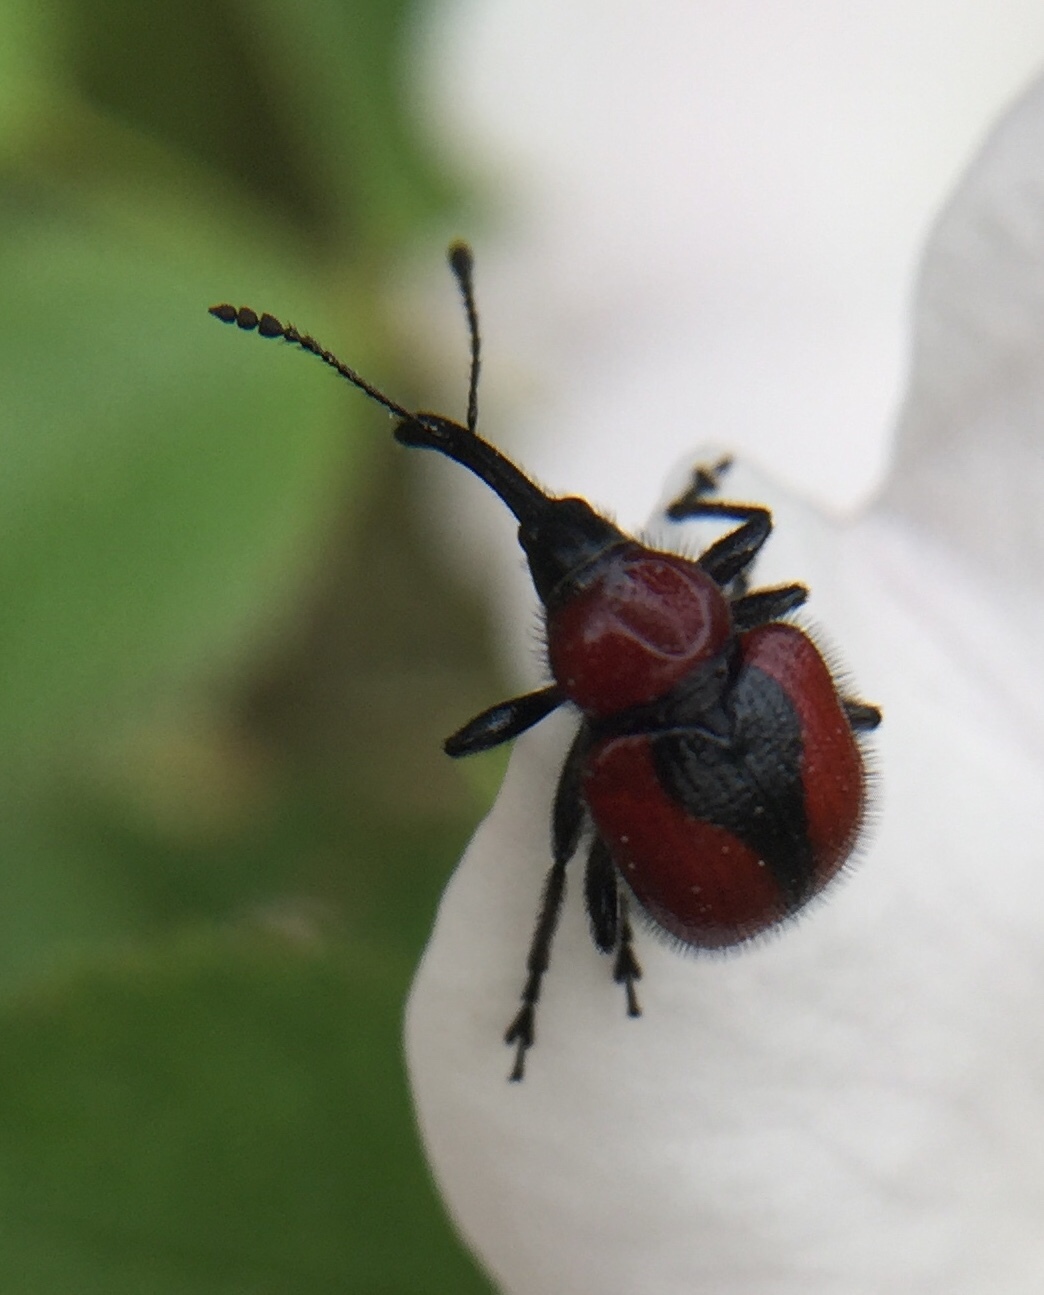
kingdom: Animalia
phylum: Arthropoda
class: Insecta
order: Coleoptera
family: Attelabidae
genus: Mecorhis
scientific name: Mecorhis ungarica
